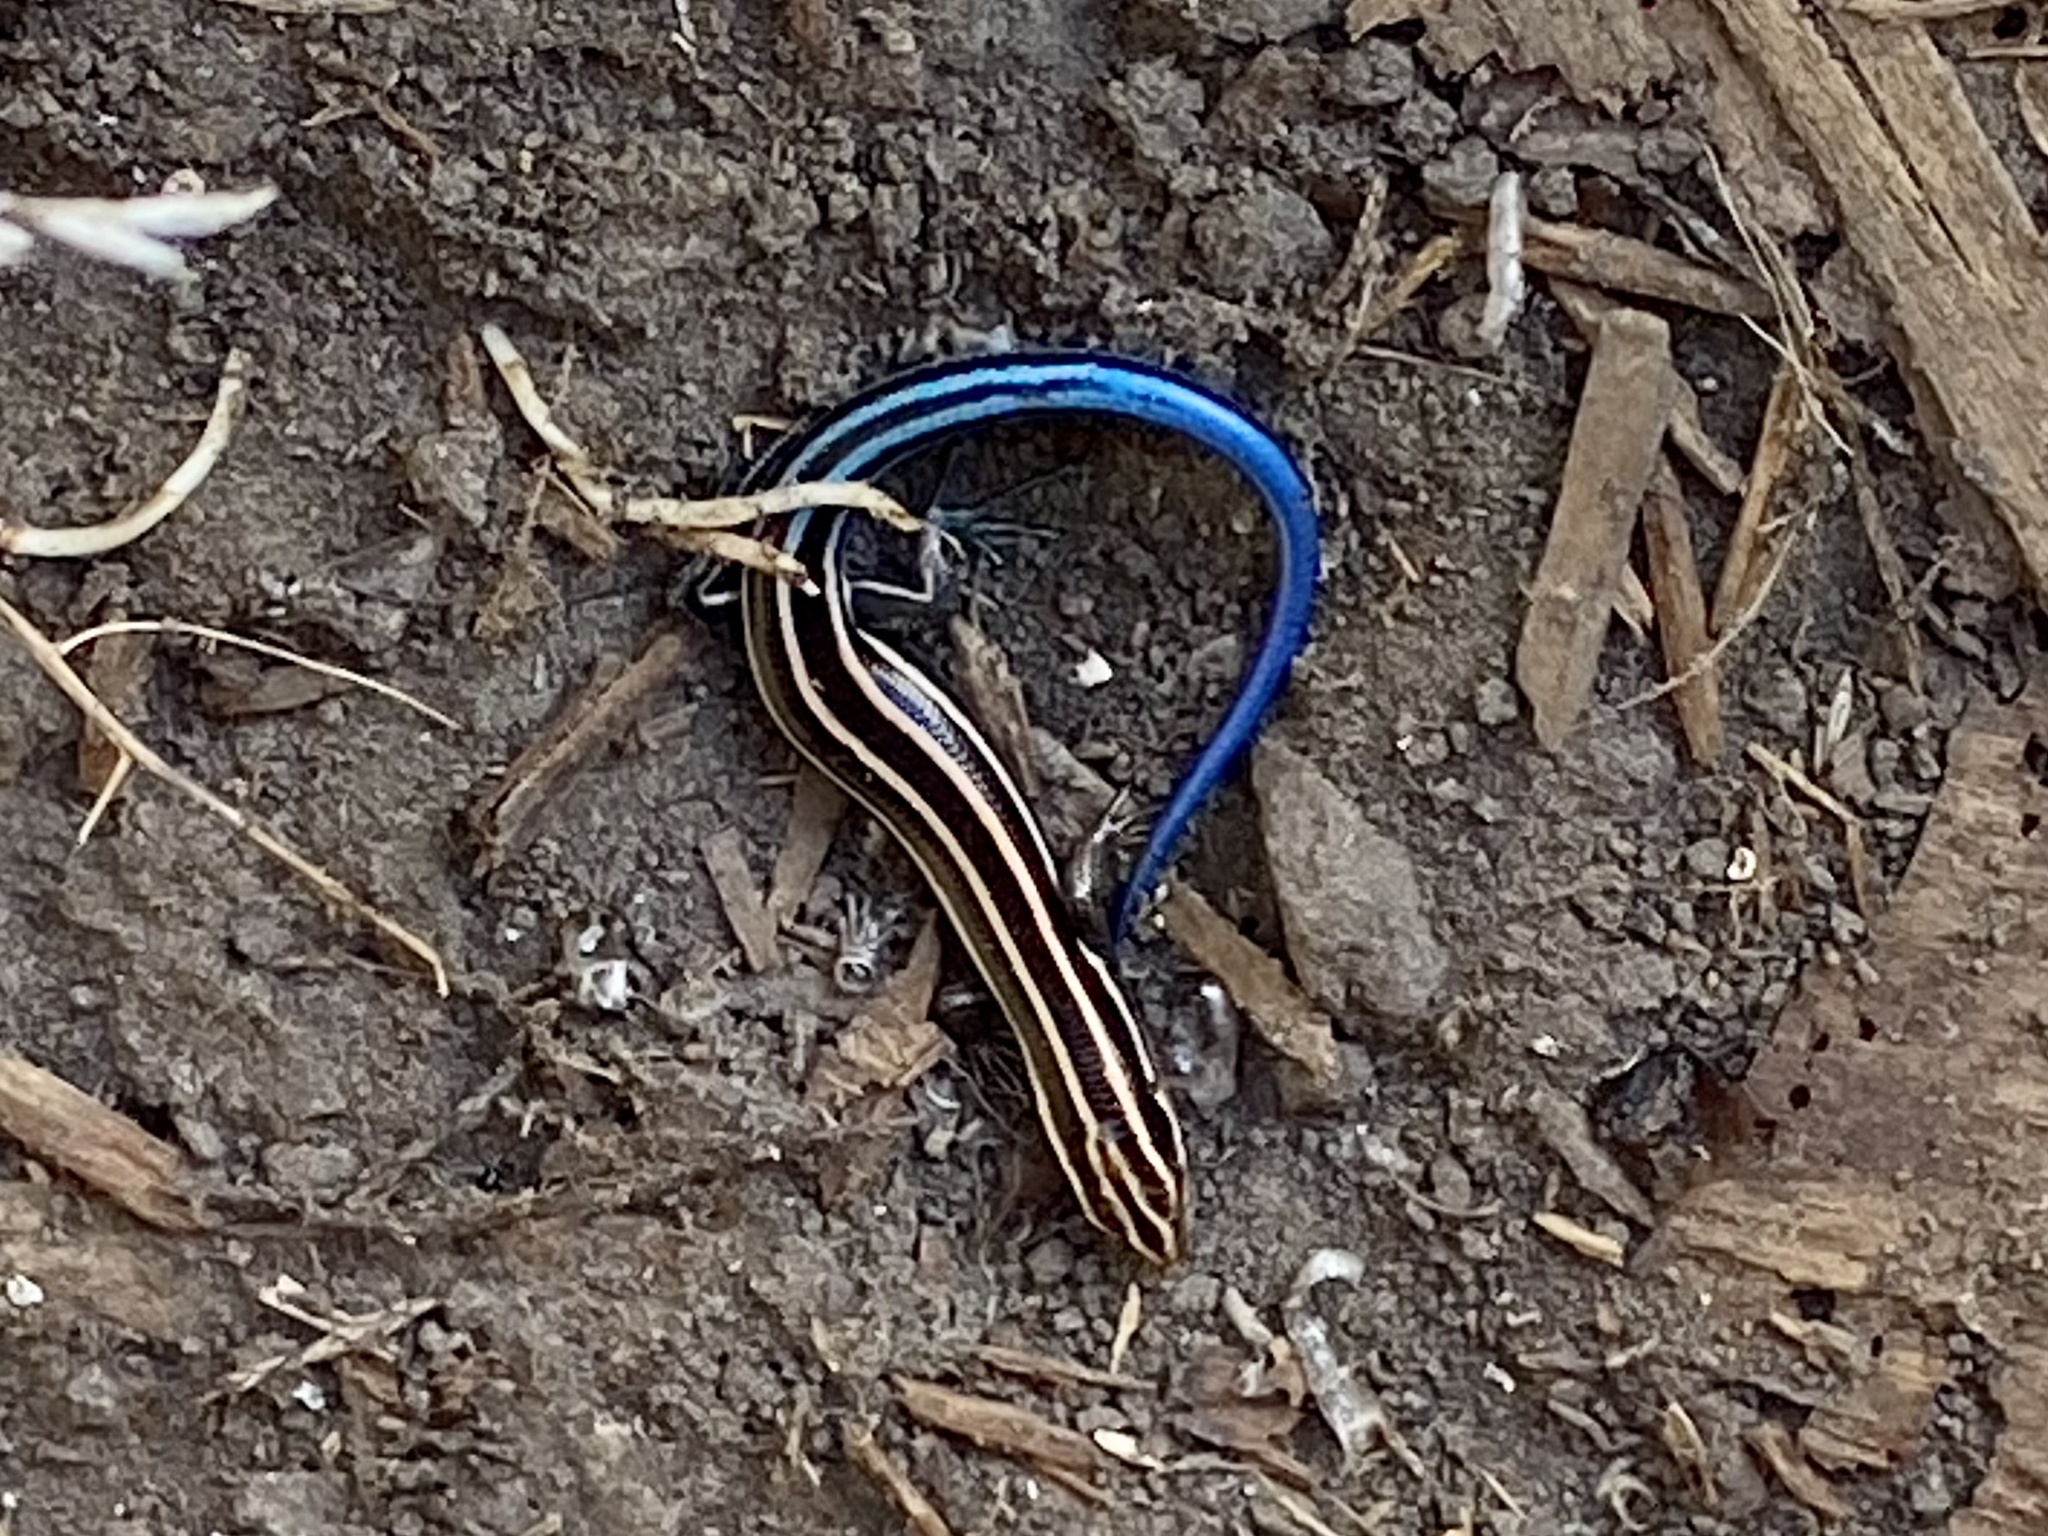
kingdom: Animalia
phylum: Chordata
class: Squamata
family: Scincidae
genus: Plestiodon
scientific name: Plestiodon fasciatus
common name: Five-lined skink
